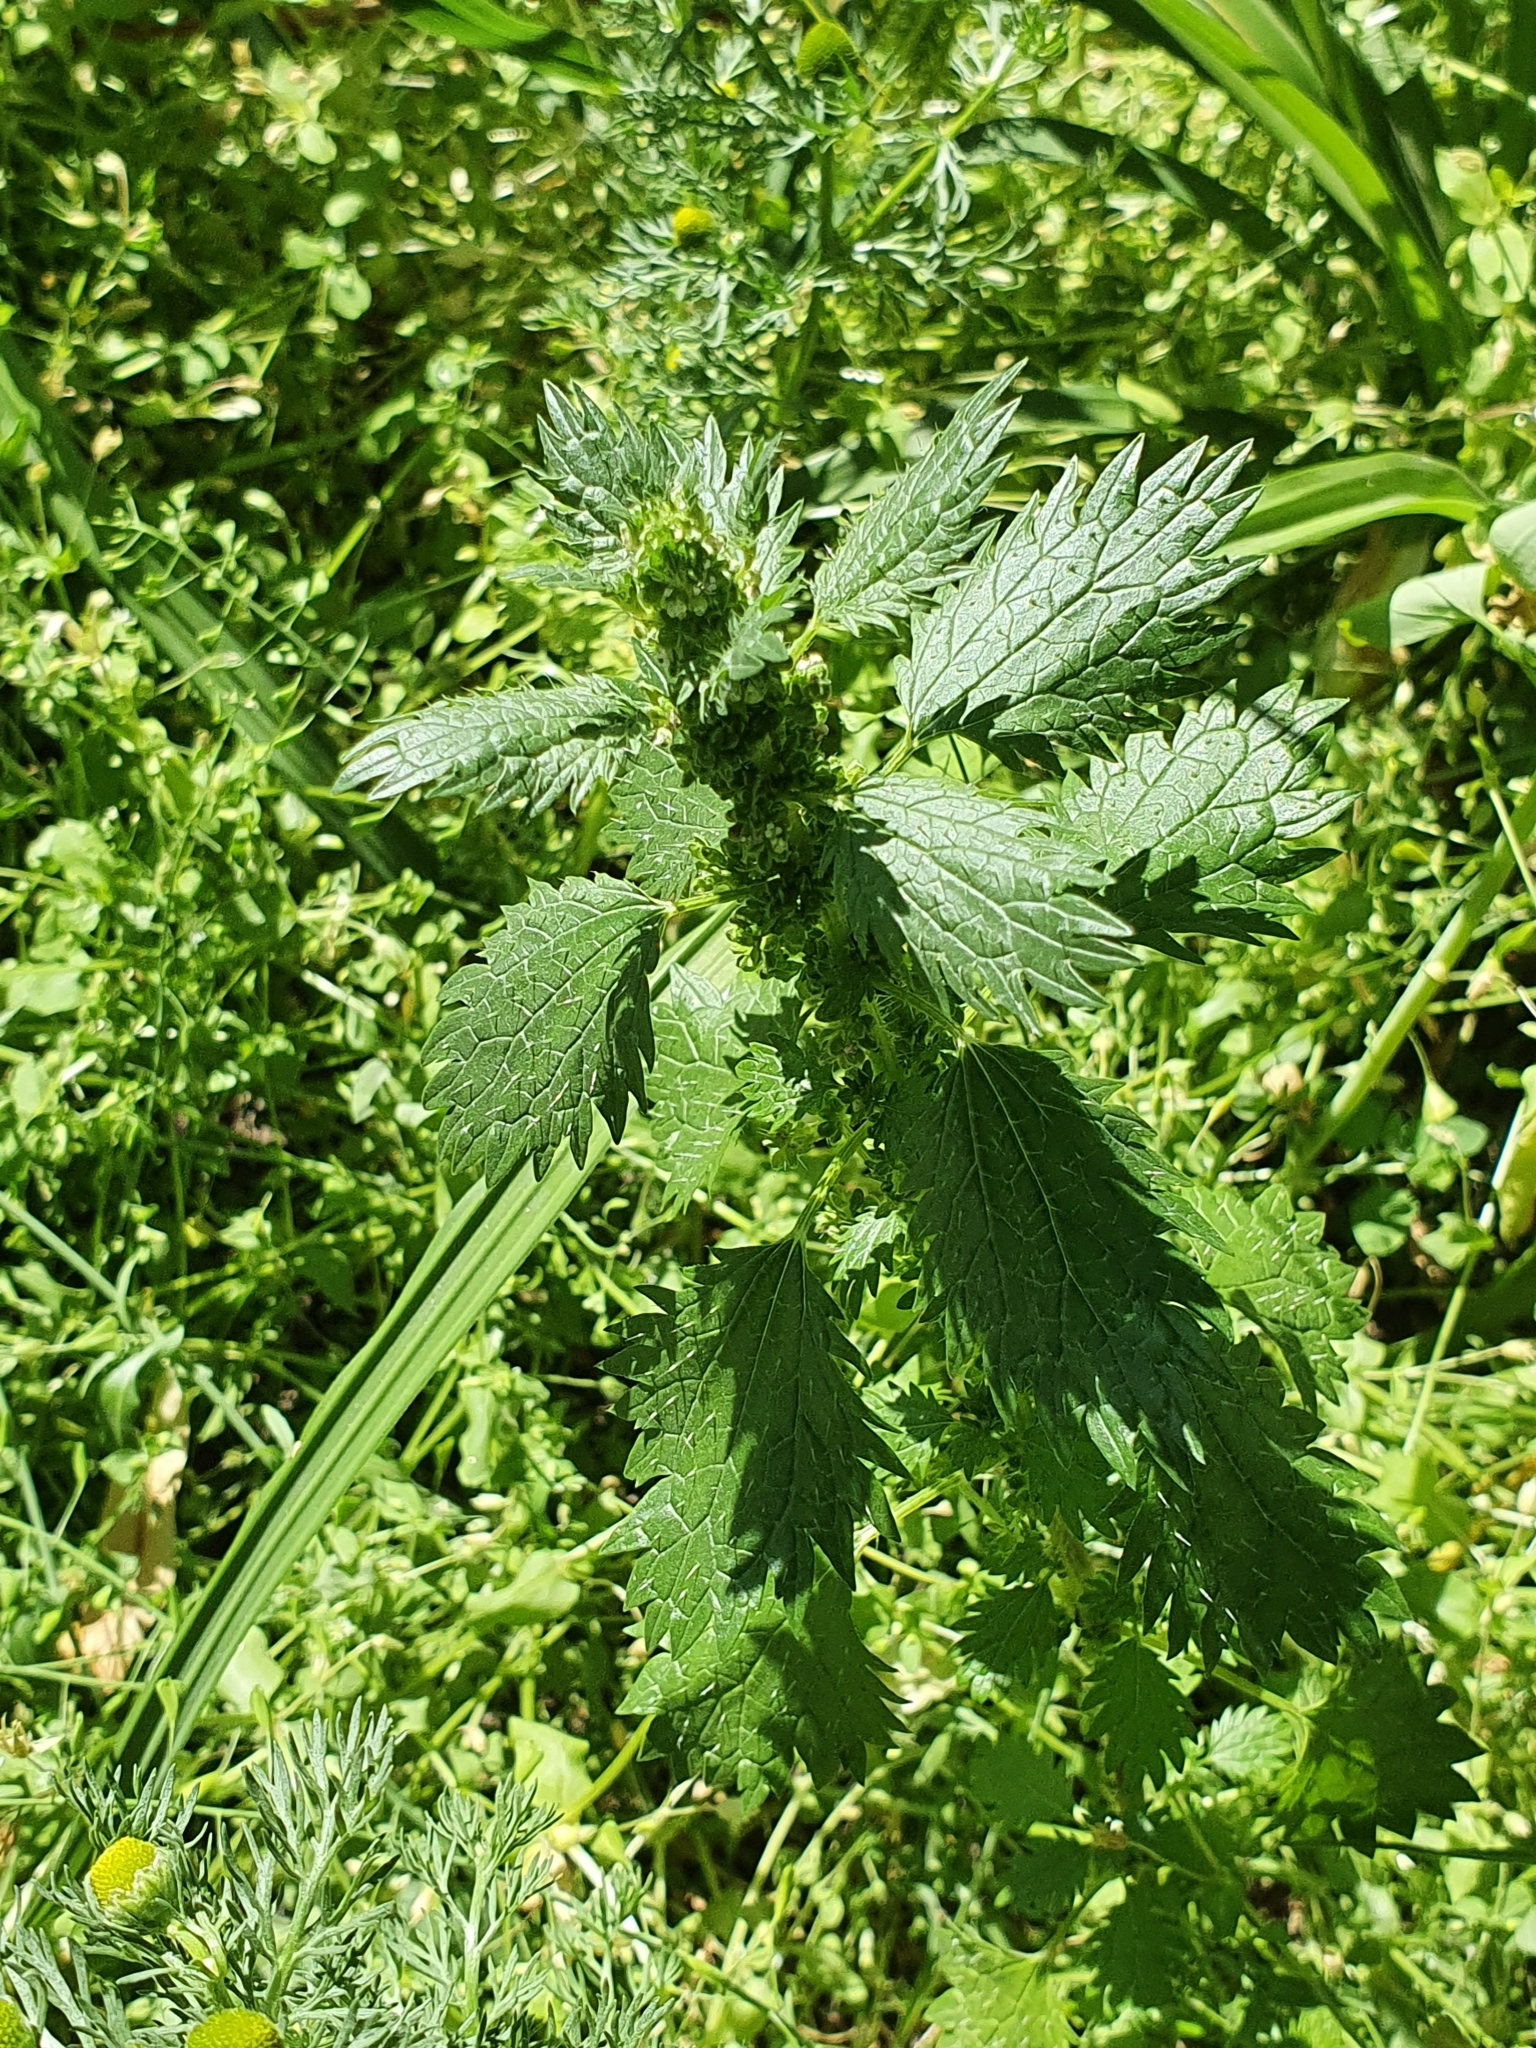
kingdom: Plantae
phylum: Tracheophyta
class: Magnoliopsida
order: Rosales
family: Urticaceae
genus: Urtica
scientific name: Urtica urens
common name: Dwarf nettle
